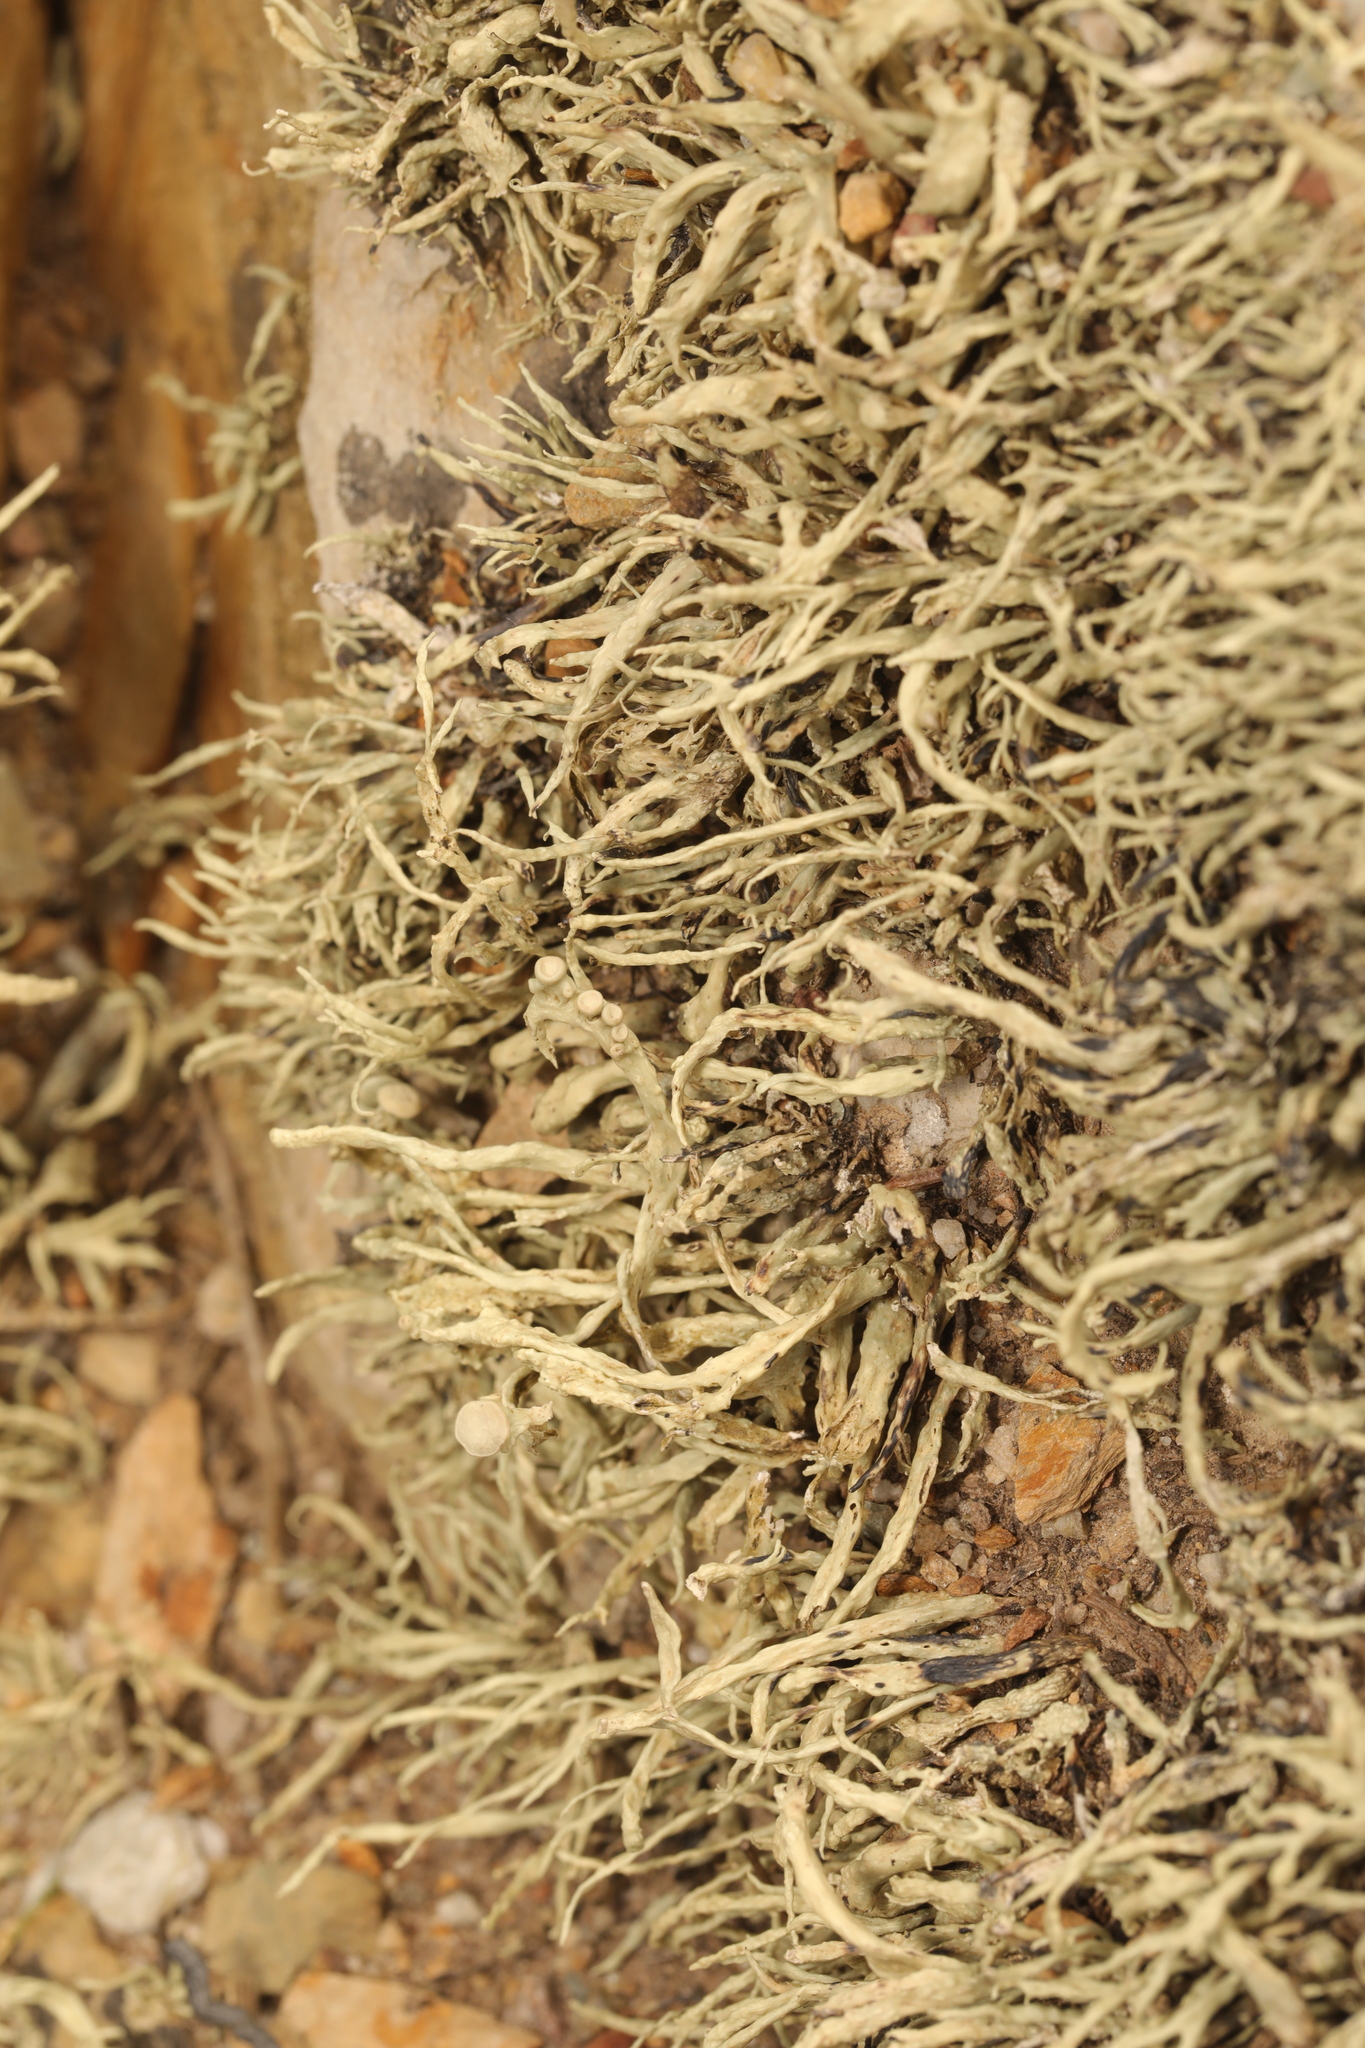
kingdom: Fungi
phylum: Ascomycota
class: Lecanoromycetes
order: Lecanorales
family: Ramalinaceae
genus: Ramalina
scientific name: Ramalina siliquosa
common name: Sea ivory
